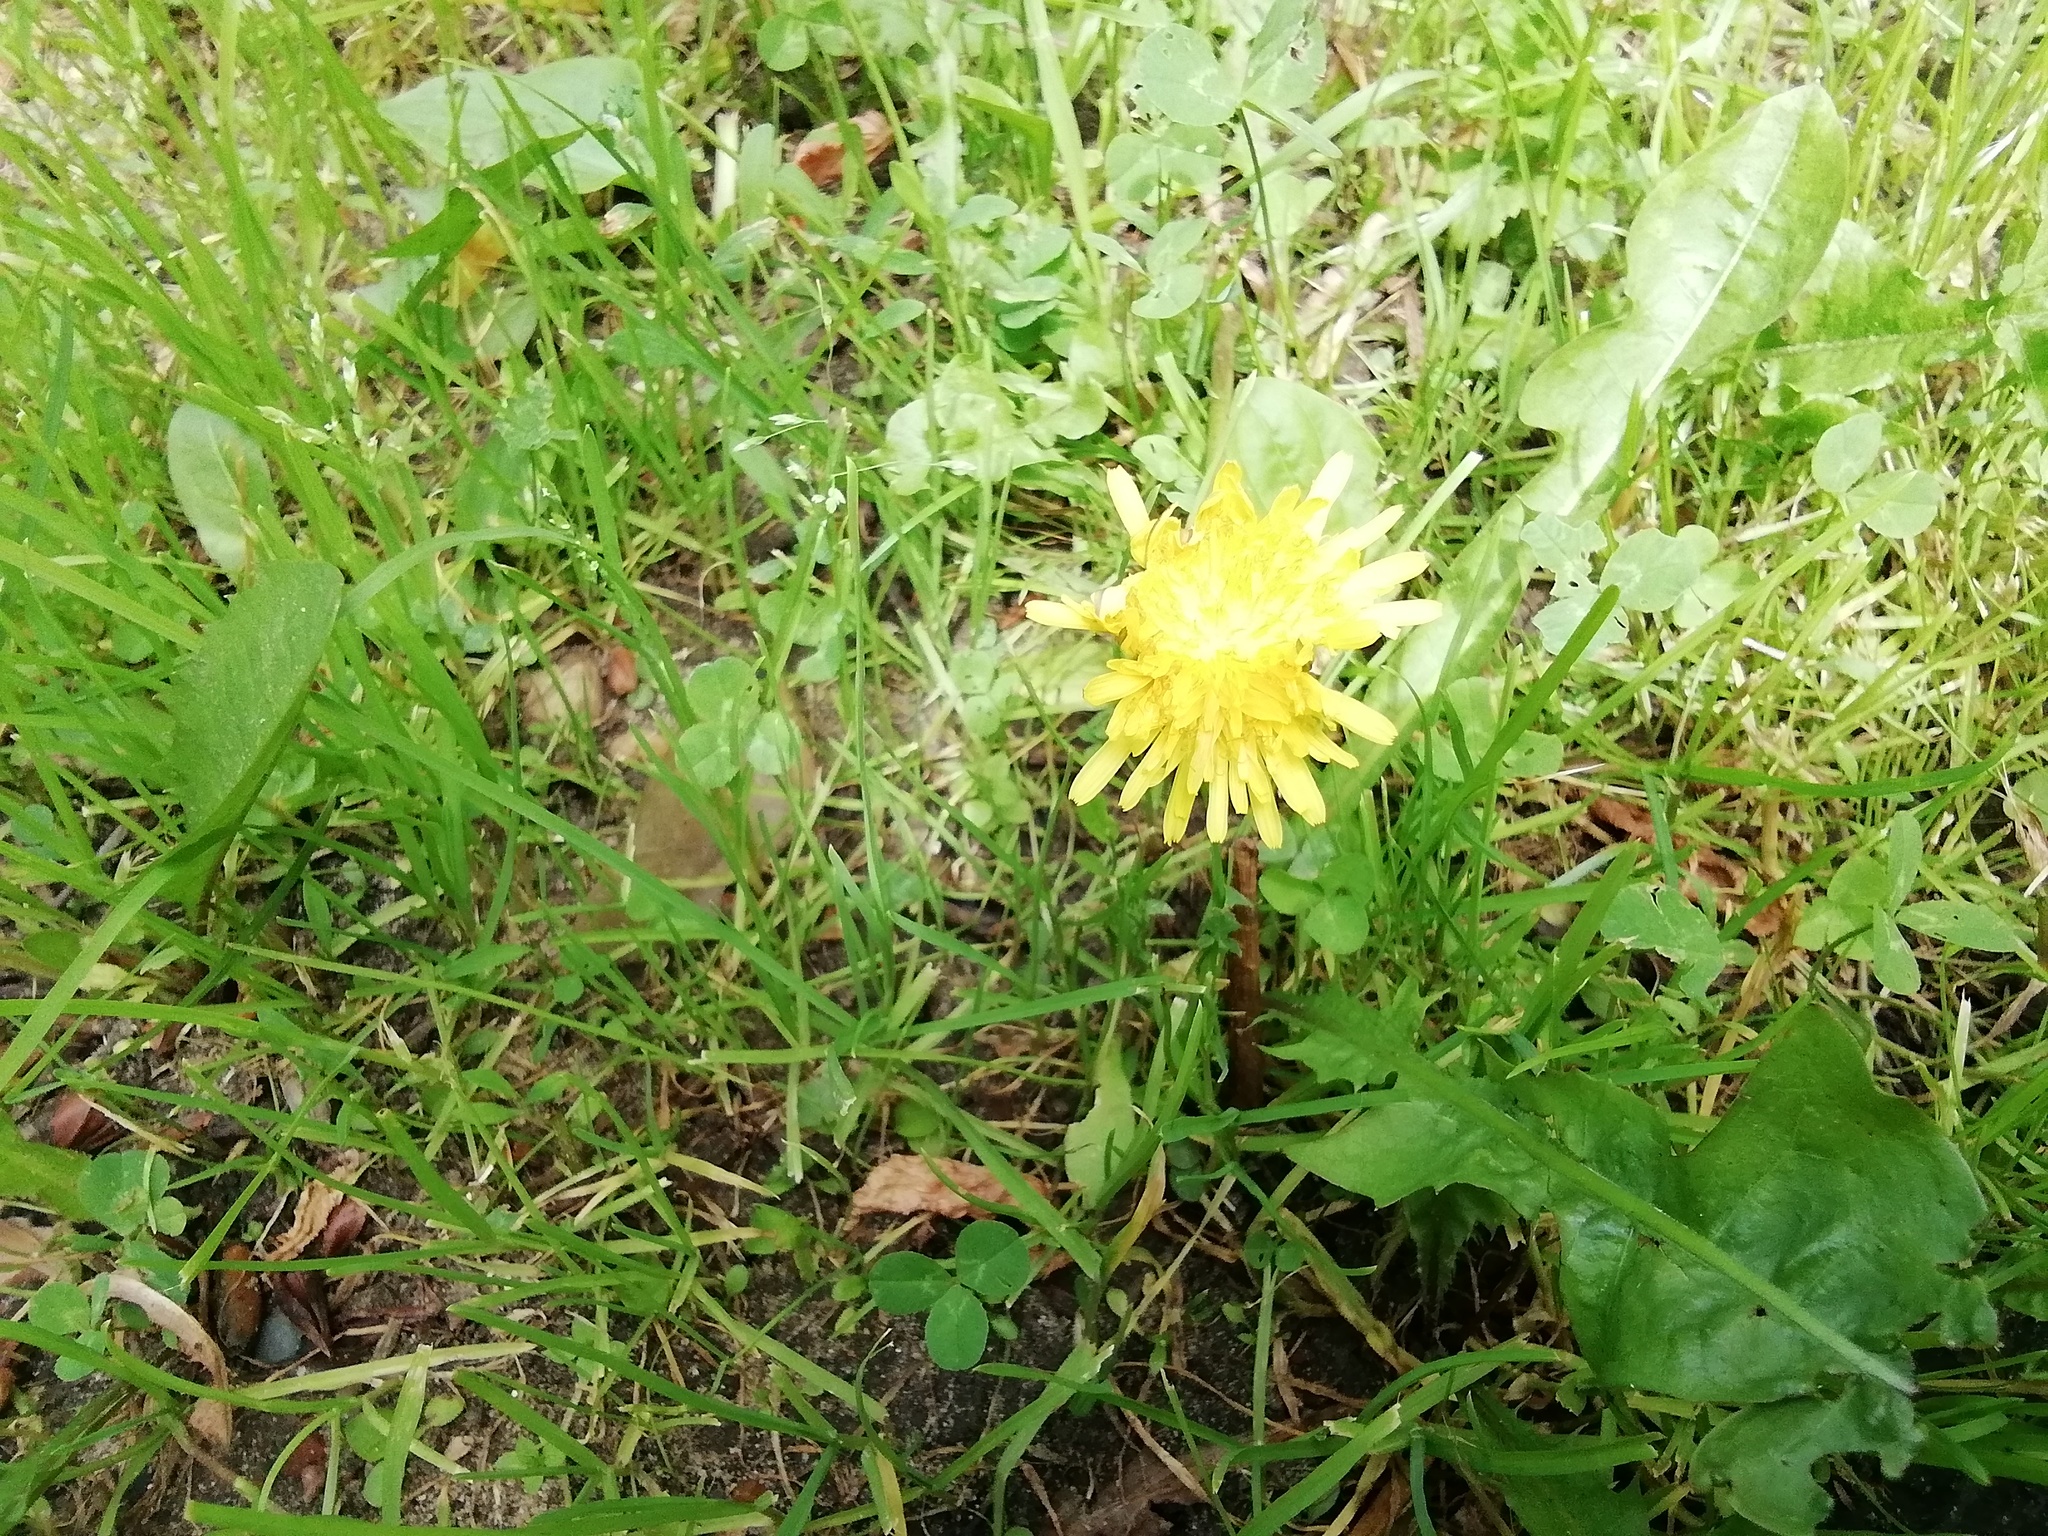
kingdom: Plantae
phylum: Tracheophyta
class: Magnoliopsida
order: Asterales
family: Asteraceae
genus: Taraxacum
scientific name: Taraxacum officinale
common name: Common dandelion
